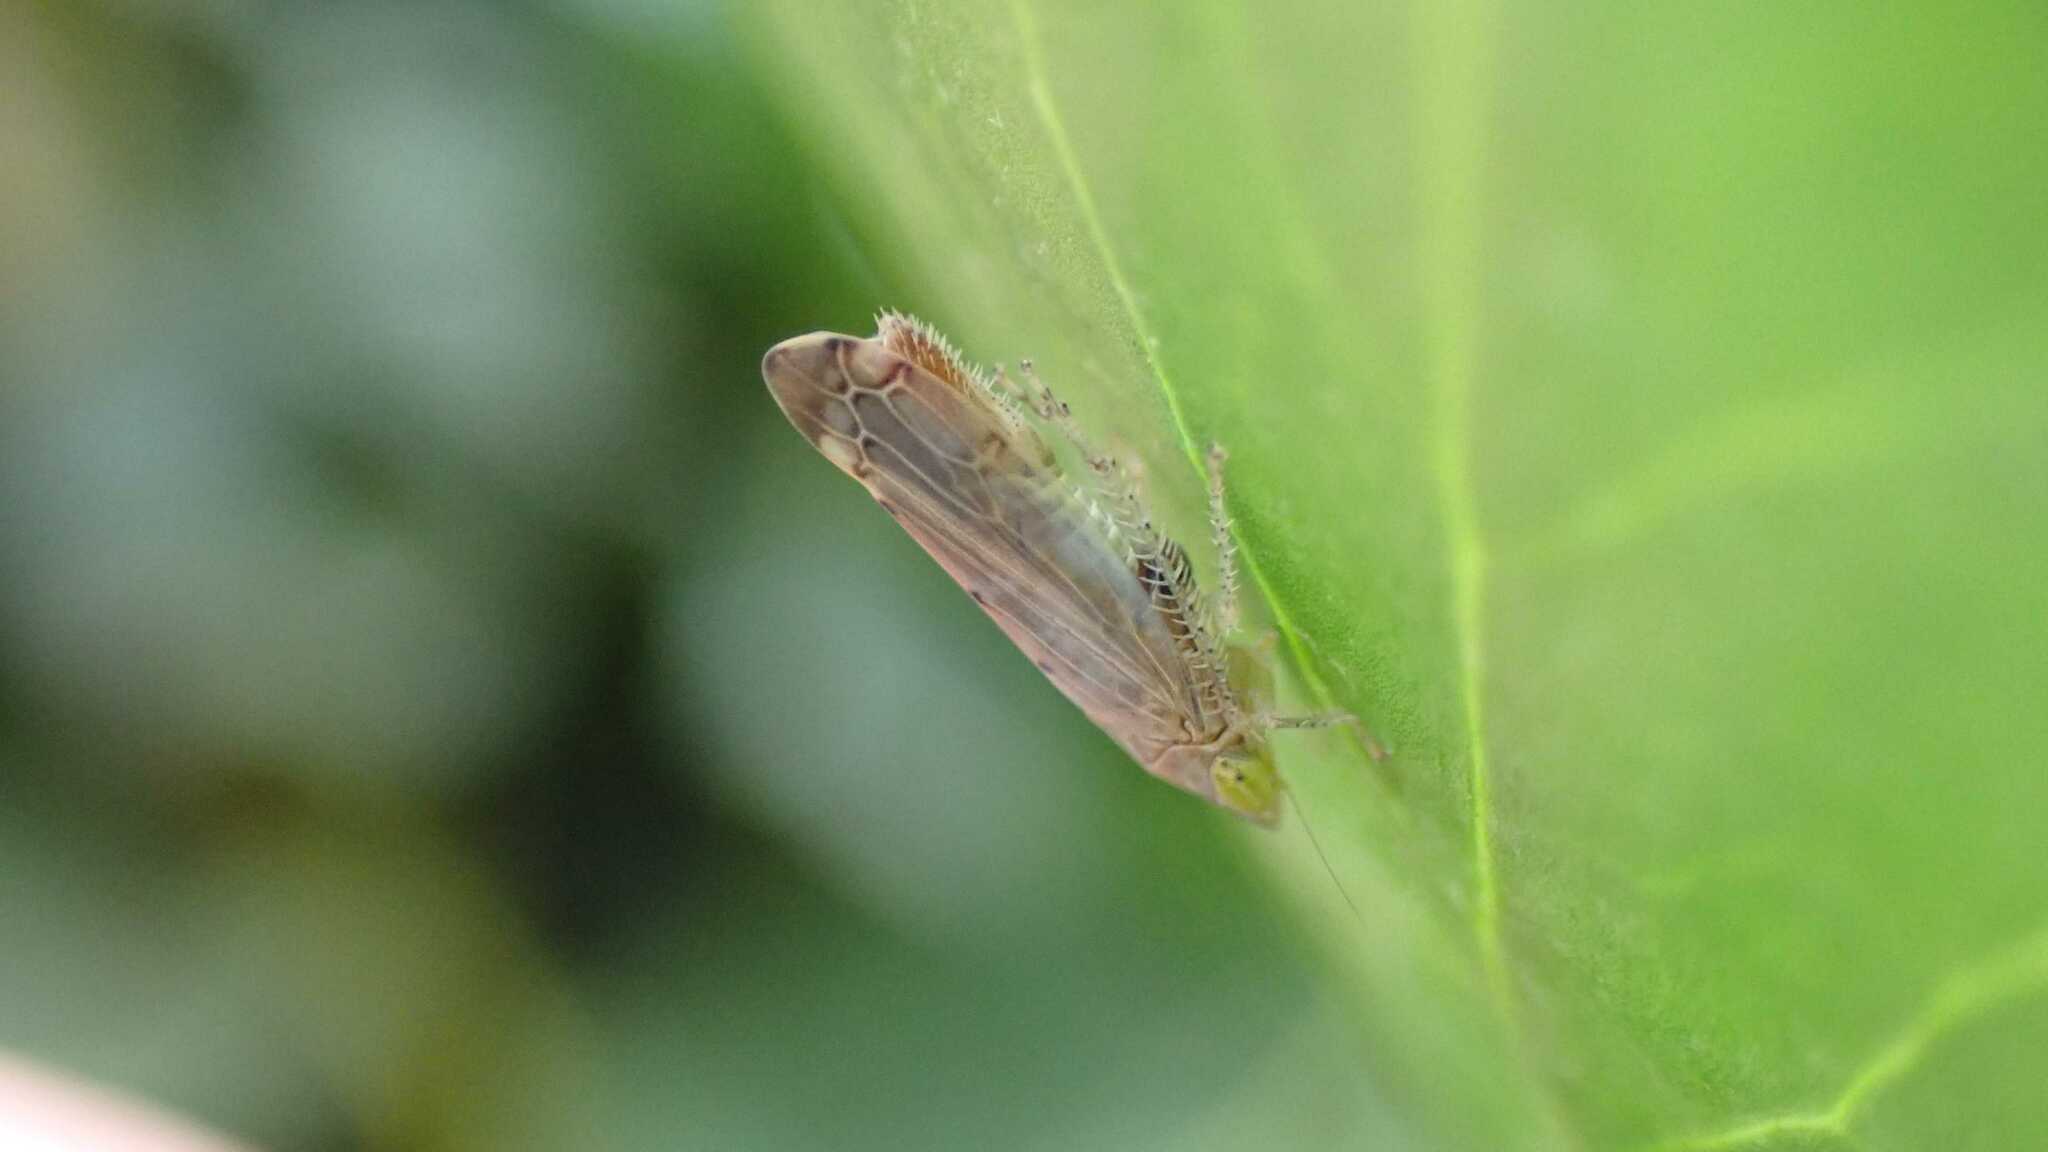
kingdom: Animalia
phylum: Arthropoda
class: Insecta
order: Hemiptera
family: Cicadellidae
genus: Synophropsis
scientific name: Synophropsis lauri
